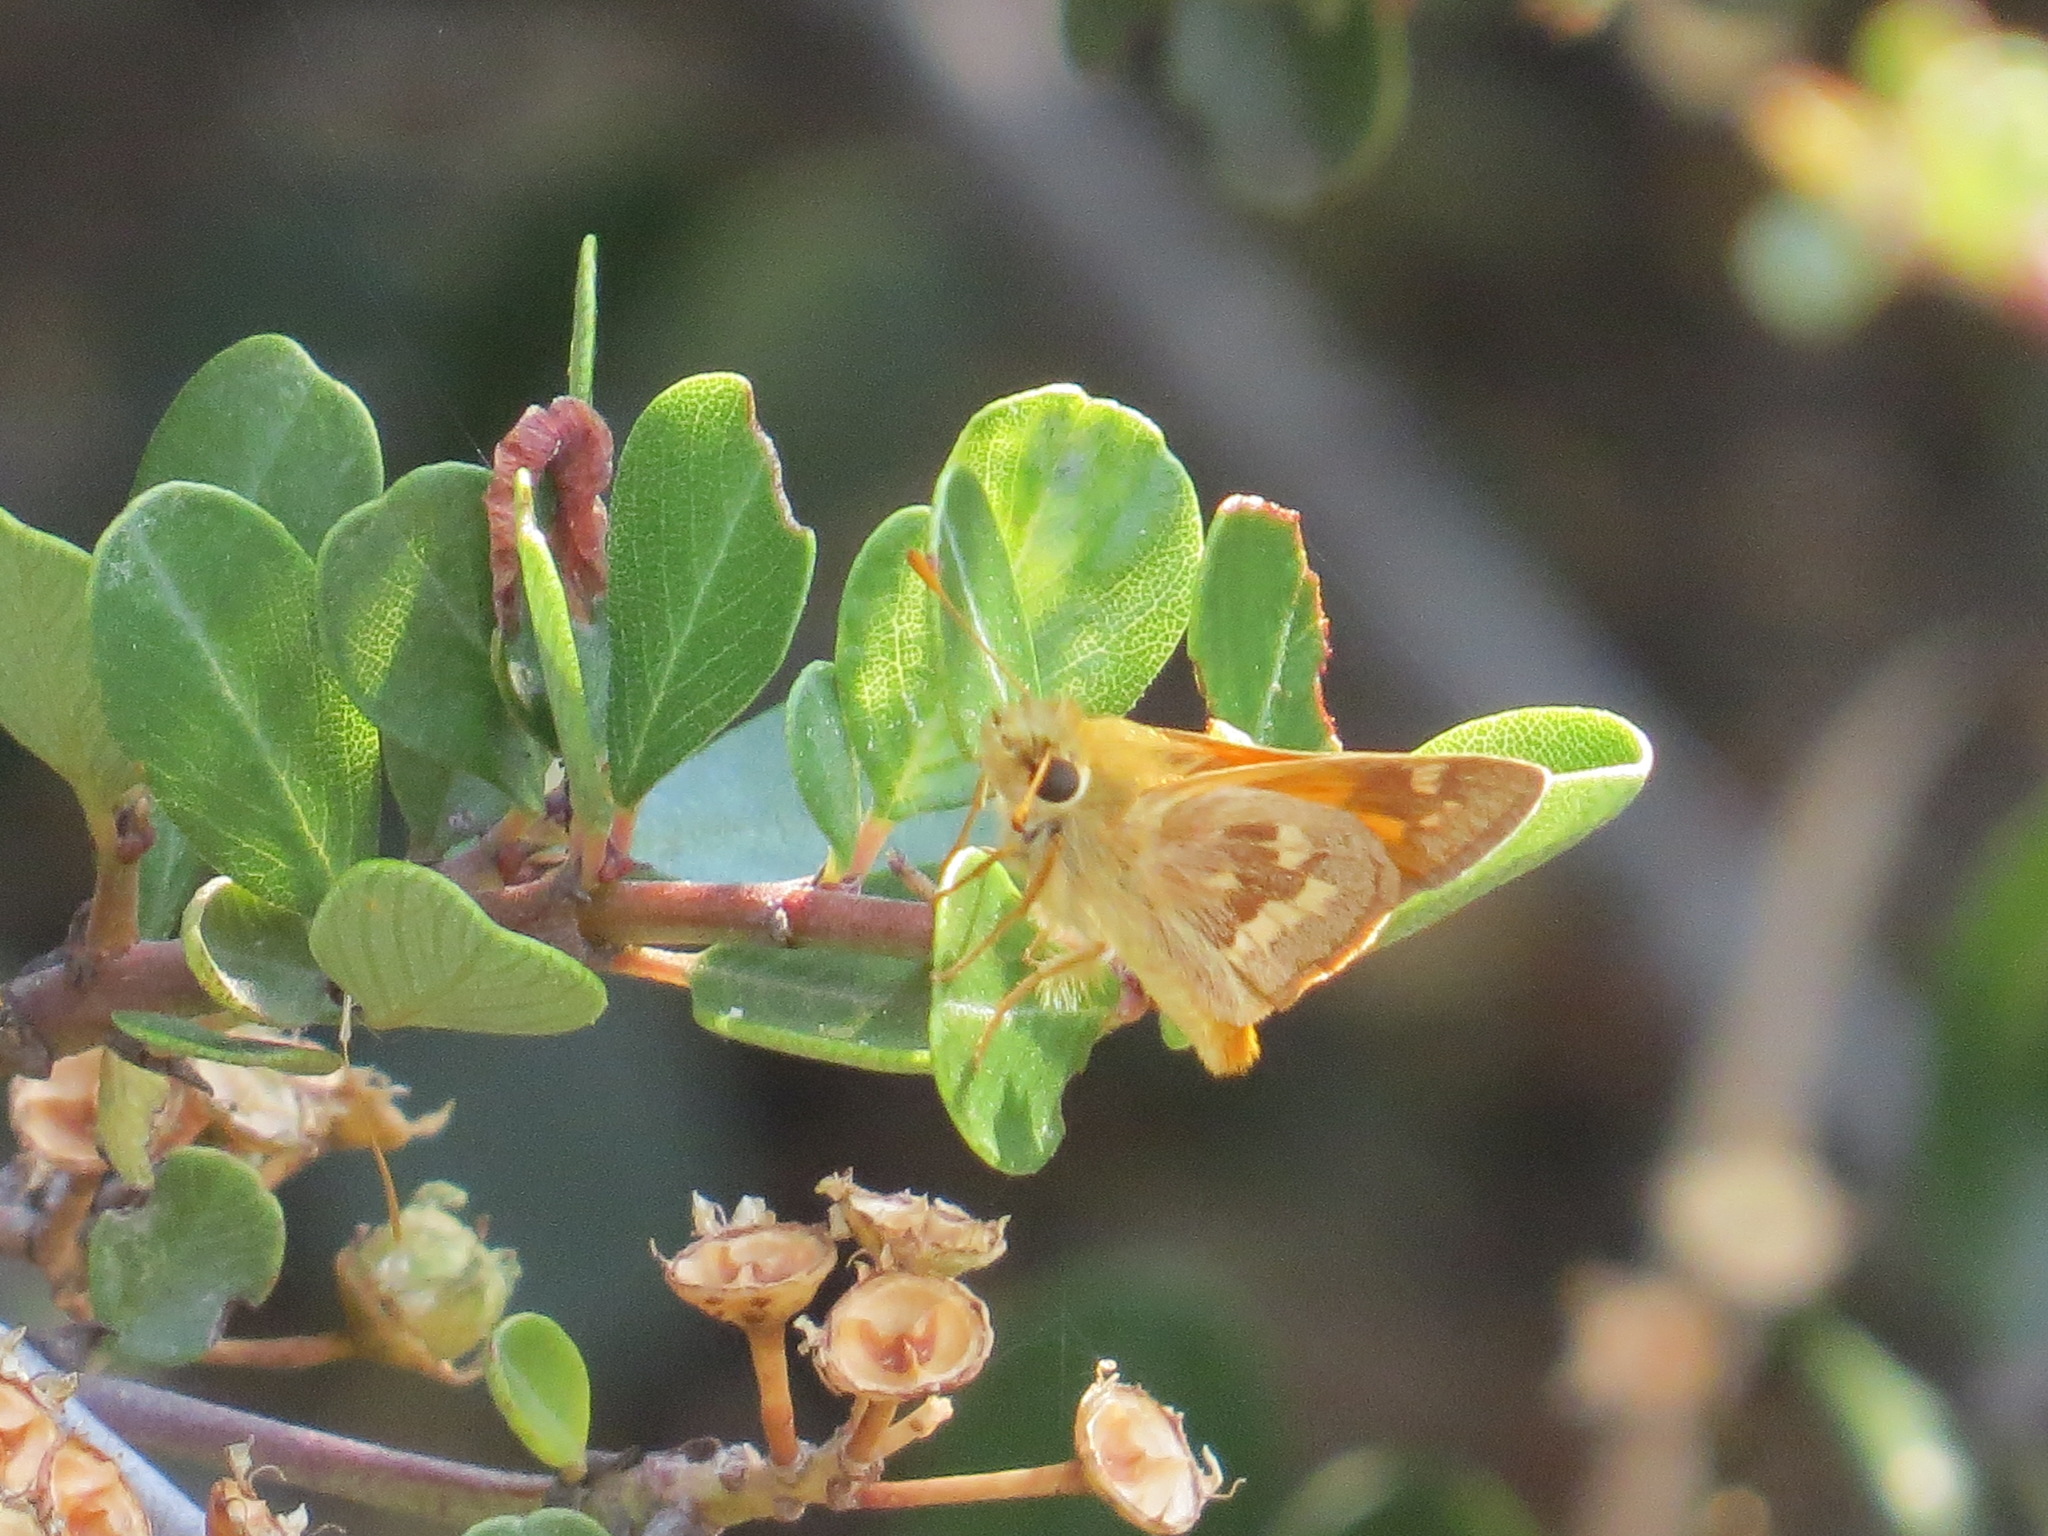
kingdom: Animalia
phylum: Arthropoda
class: Insecta
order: Lepidoptera
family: Hesperiidae
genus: Ochlodes
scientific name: Ochlodes sylvanoides
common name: Woodland skipper
